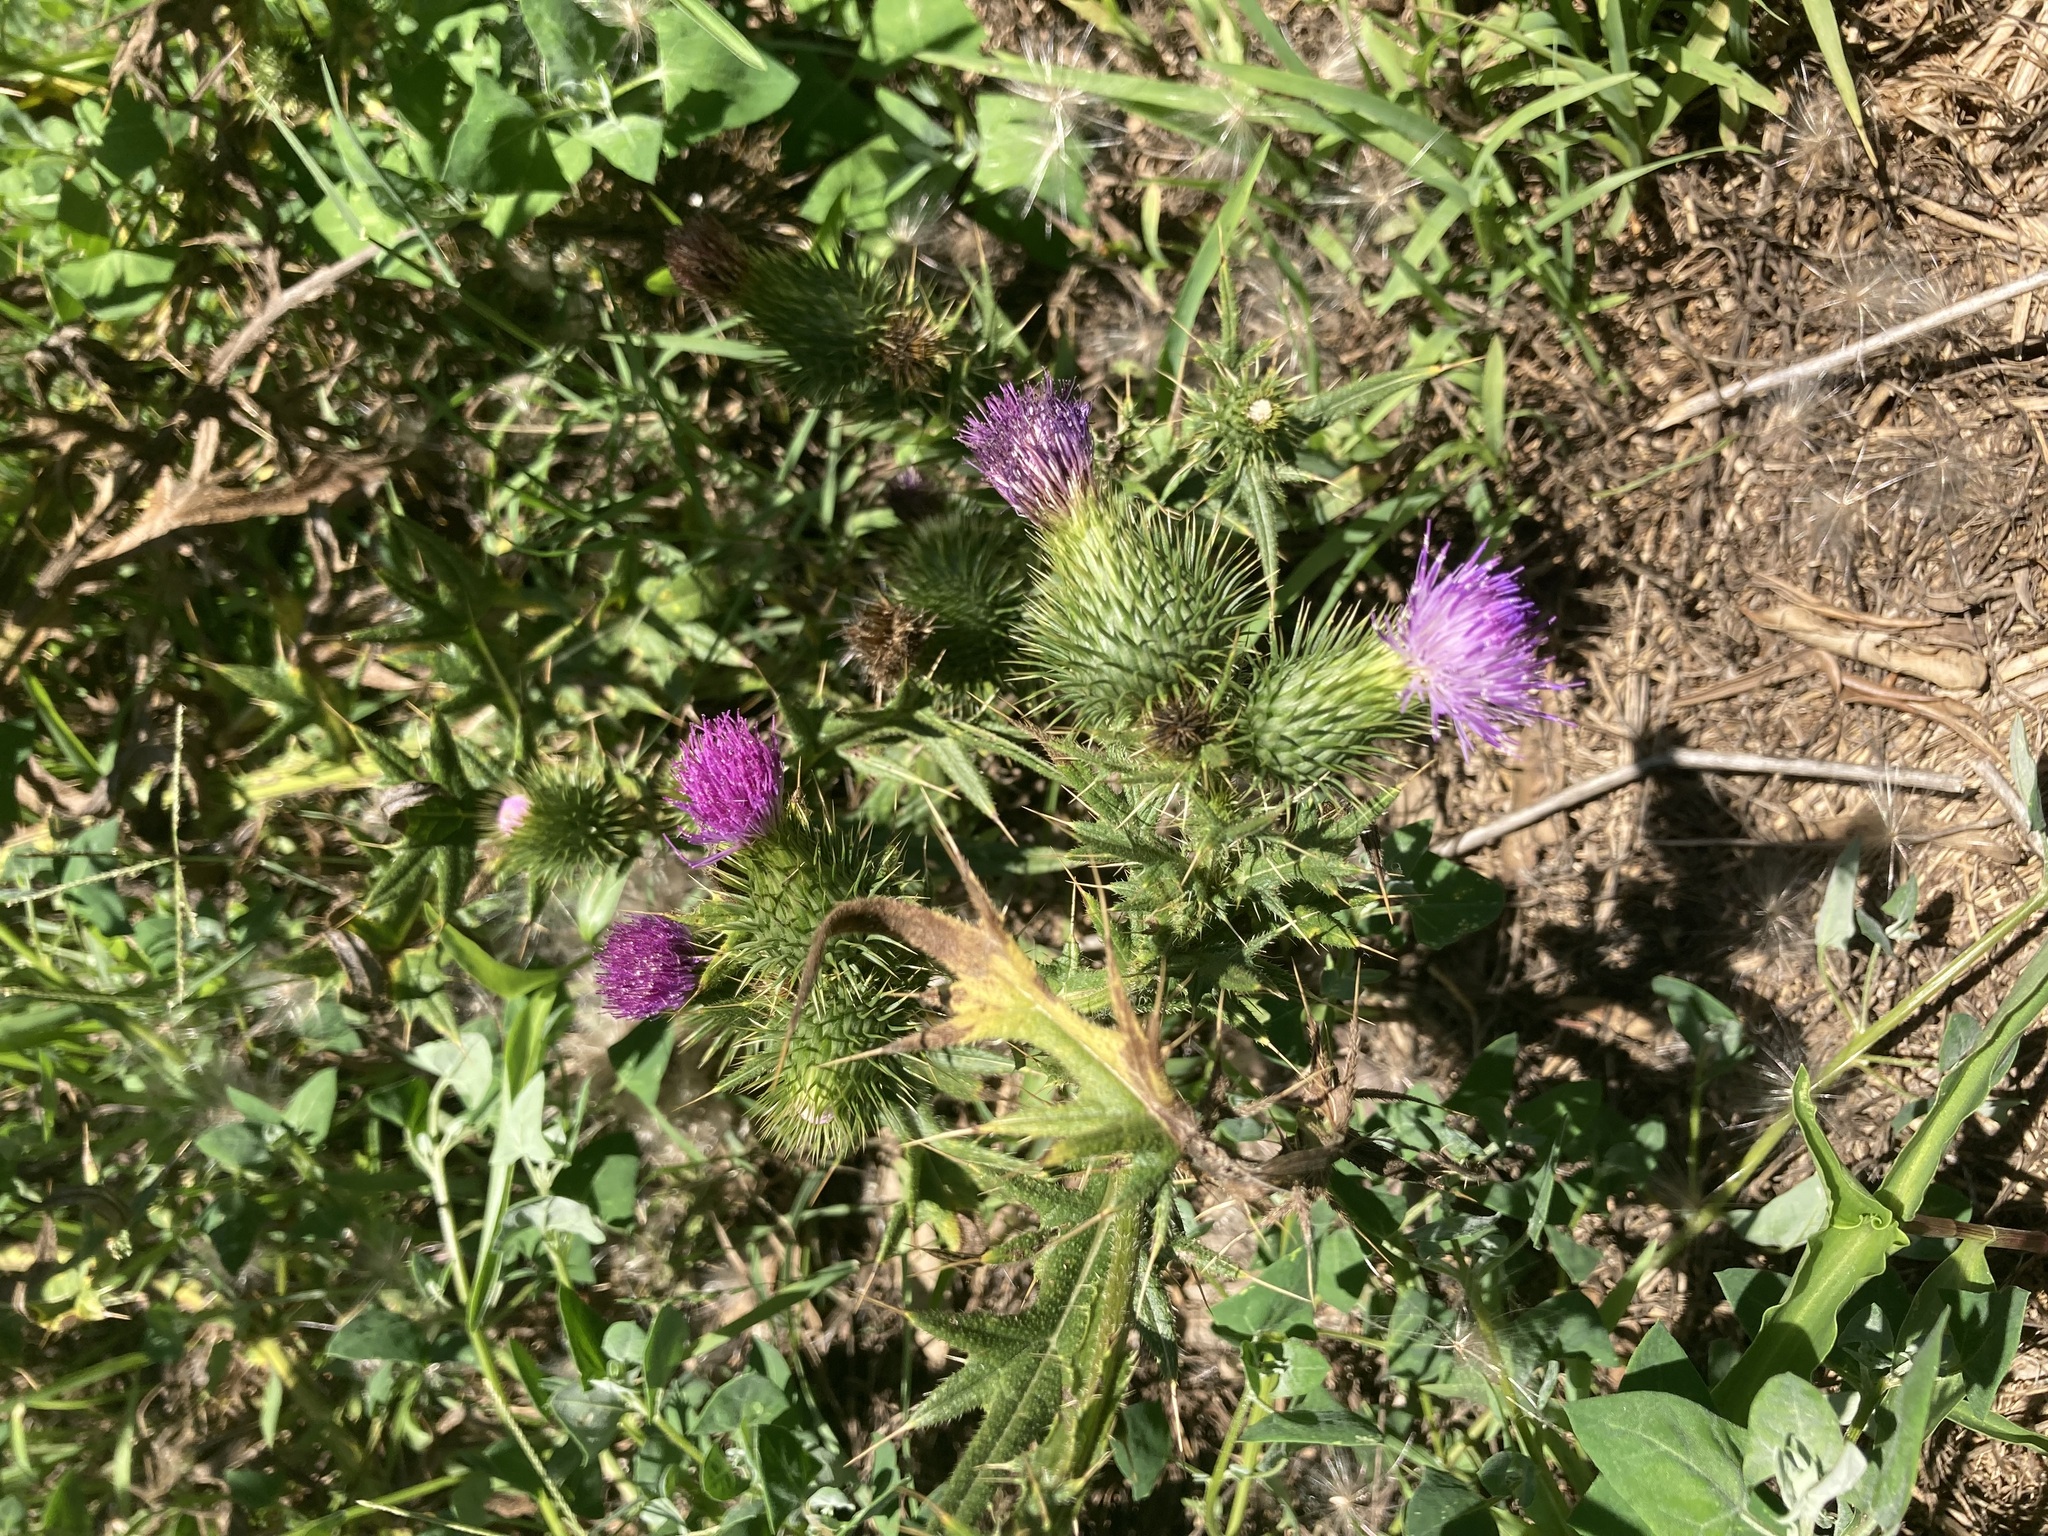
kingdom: Plantae
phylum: Tracheophyta
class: Magnoliopsida
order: Asterales
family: Asteraceae
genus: Cirsium
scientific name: Cirsium vulgare
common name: Bull thistle
